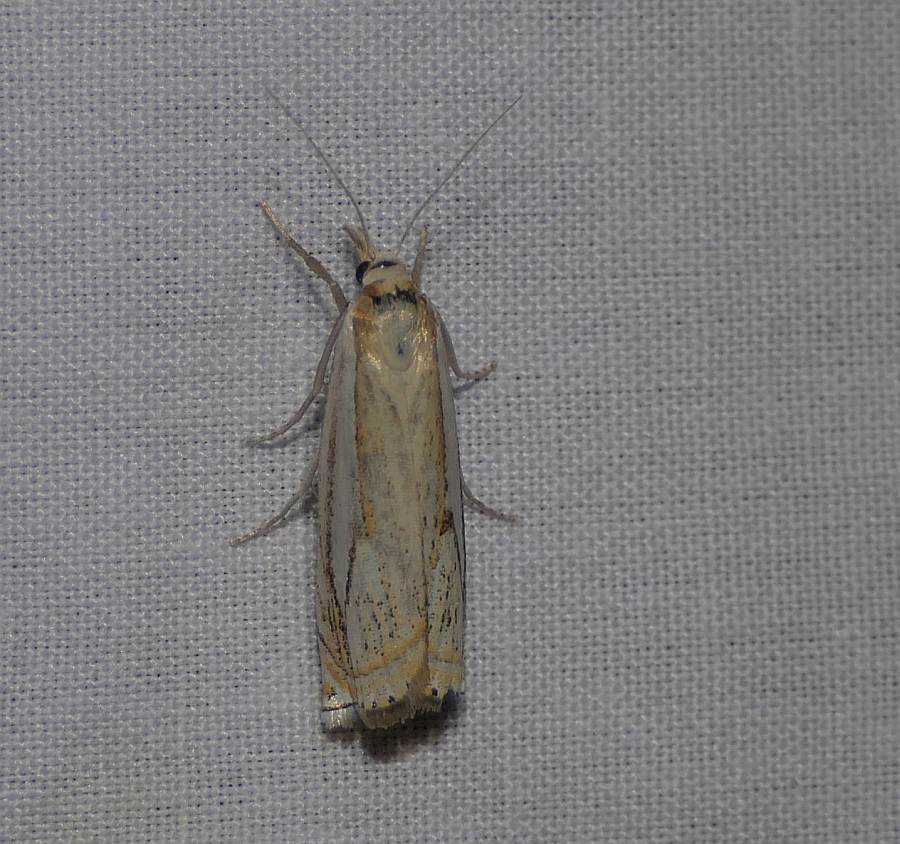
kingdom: Animalia
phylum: Arthropoda
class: Insecta
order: Lepidoptera
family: Crambidae
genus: Crambus
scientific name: Crambus saltuellus
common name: Pasture grass-veneer
